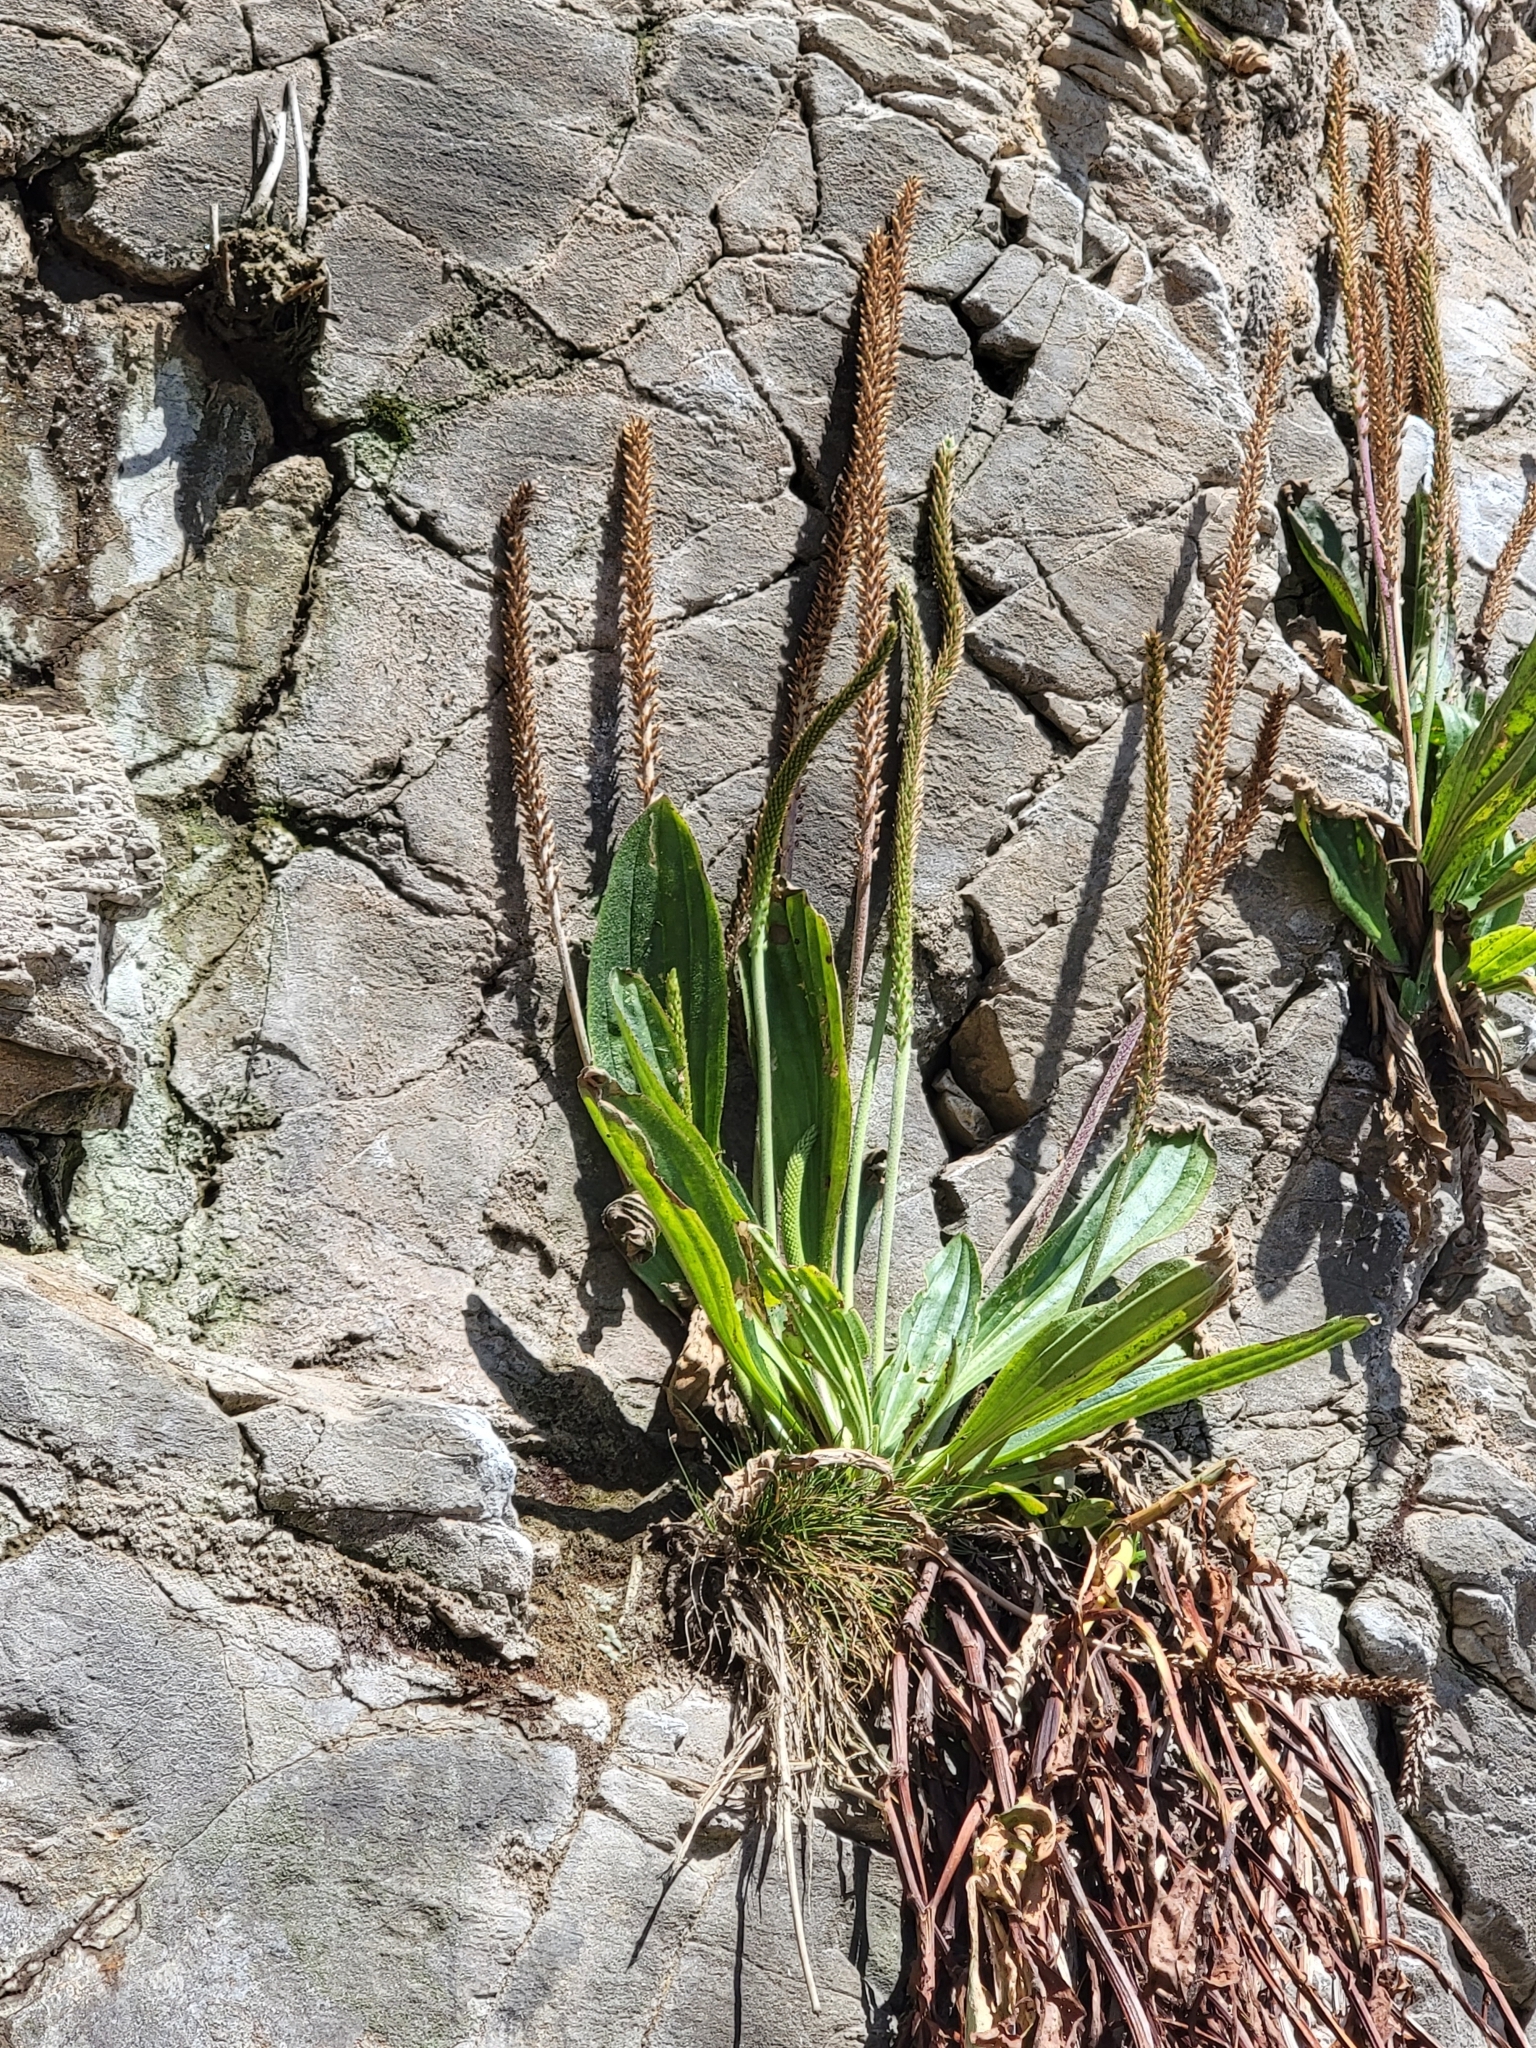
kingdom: Plantae
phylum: Tracheophyta
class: Magnoliopsida
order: Lamiales
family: Plantaginaceae
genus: Plantago
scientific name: Plantago subnuda
